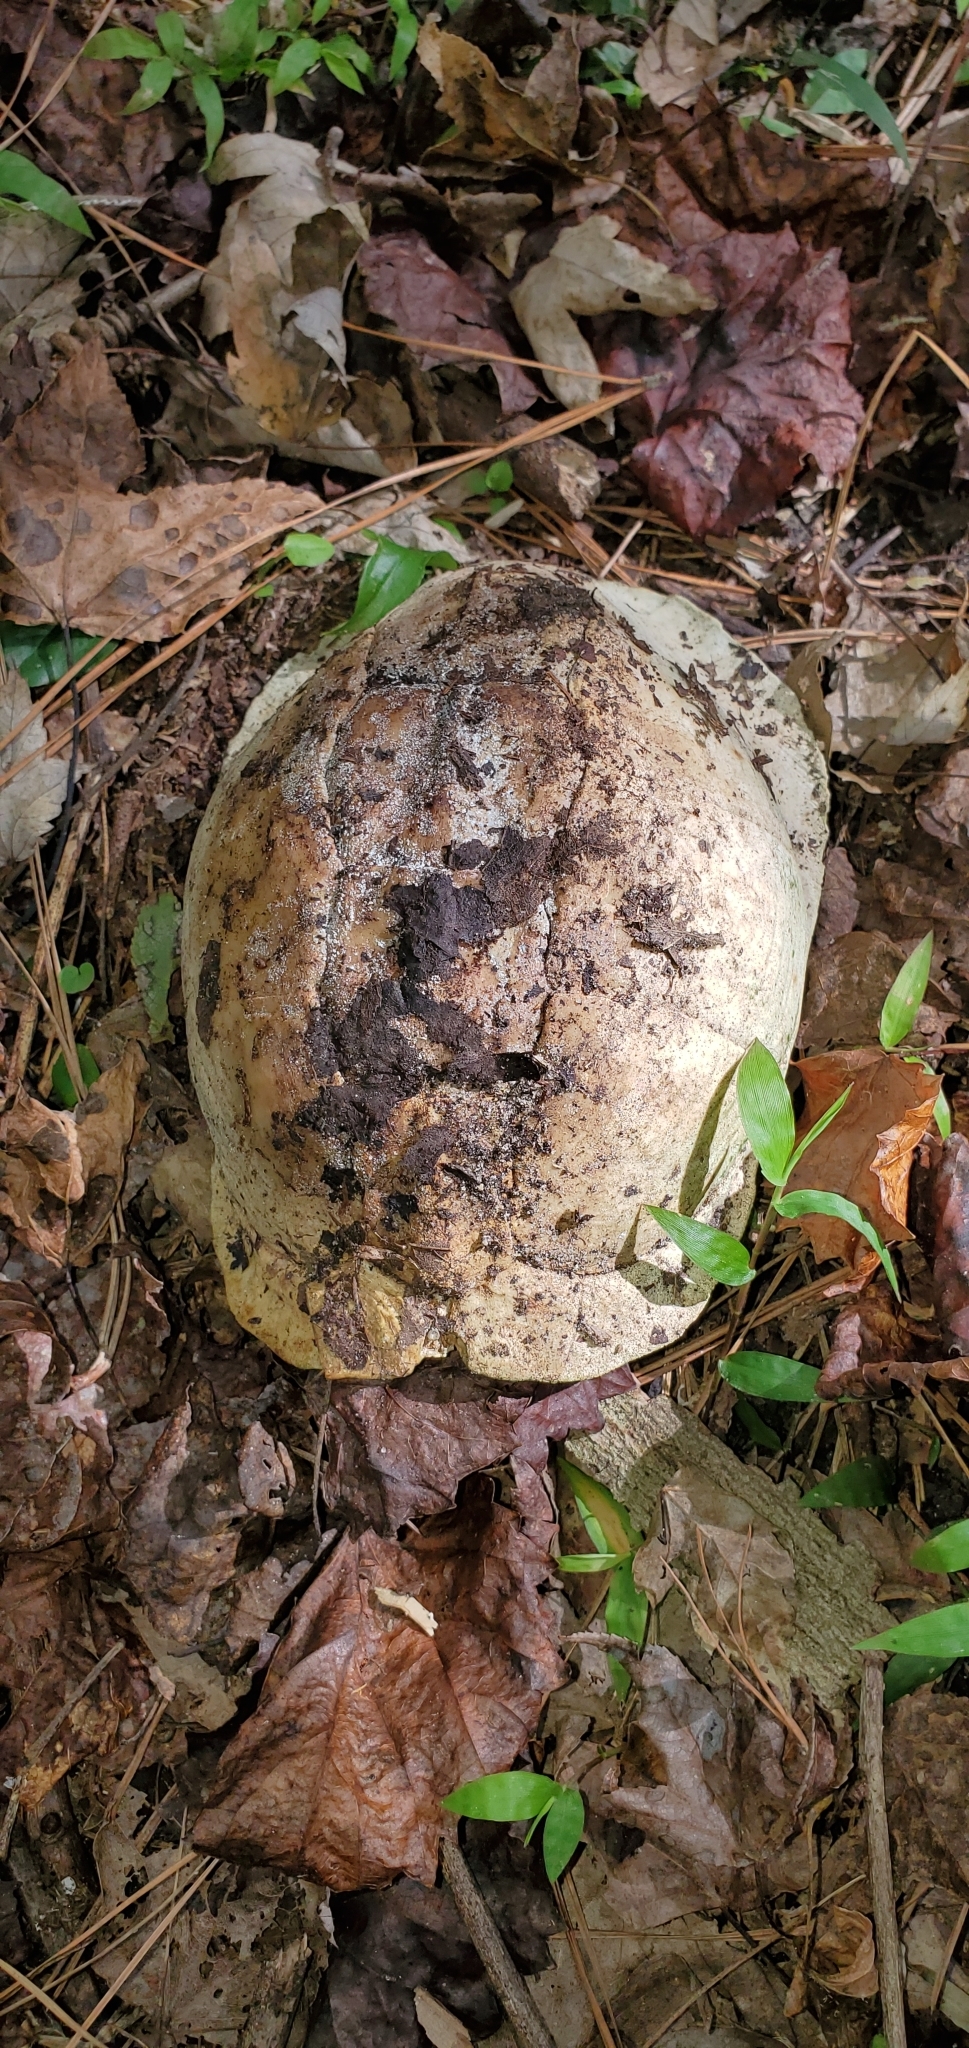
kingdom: Animalia
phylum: Chordata
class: Testudines
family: Emydidae
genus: Terrapene
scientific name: Terrapene carolina
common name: Common box turtle
